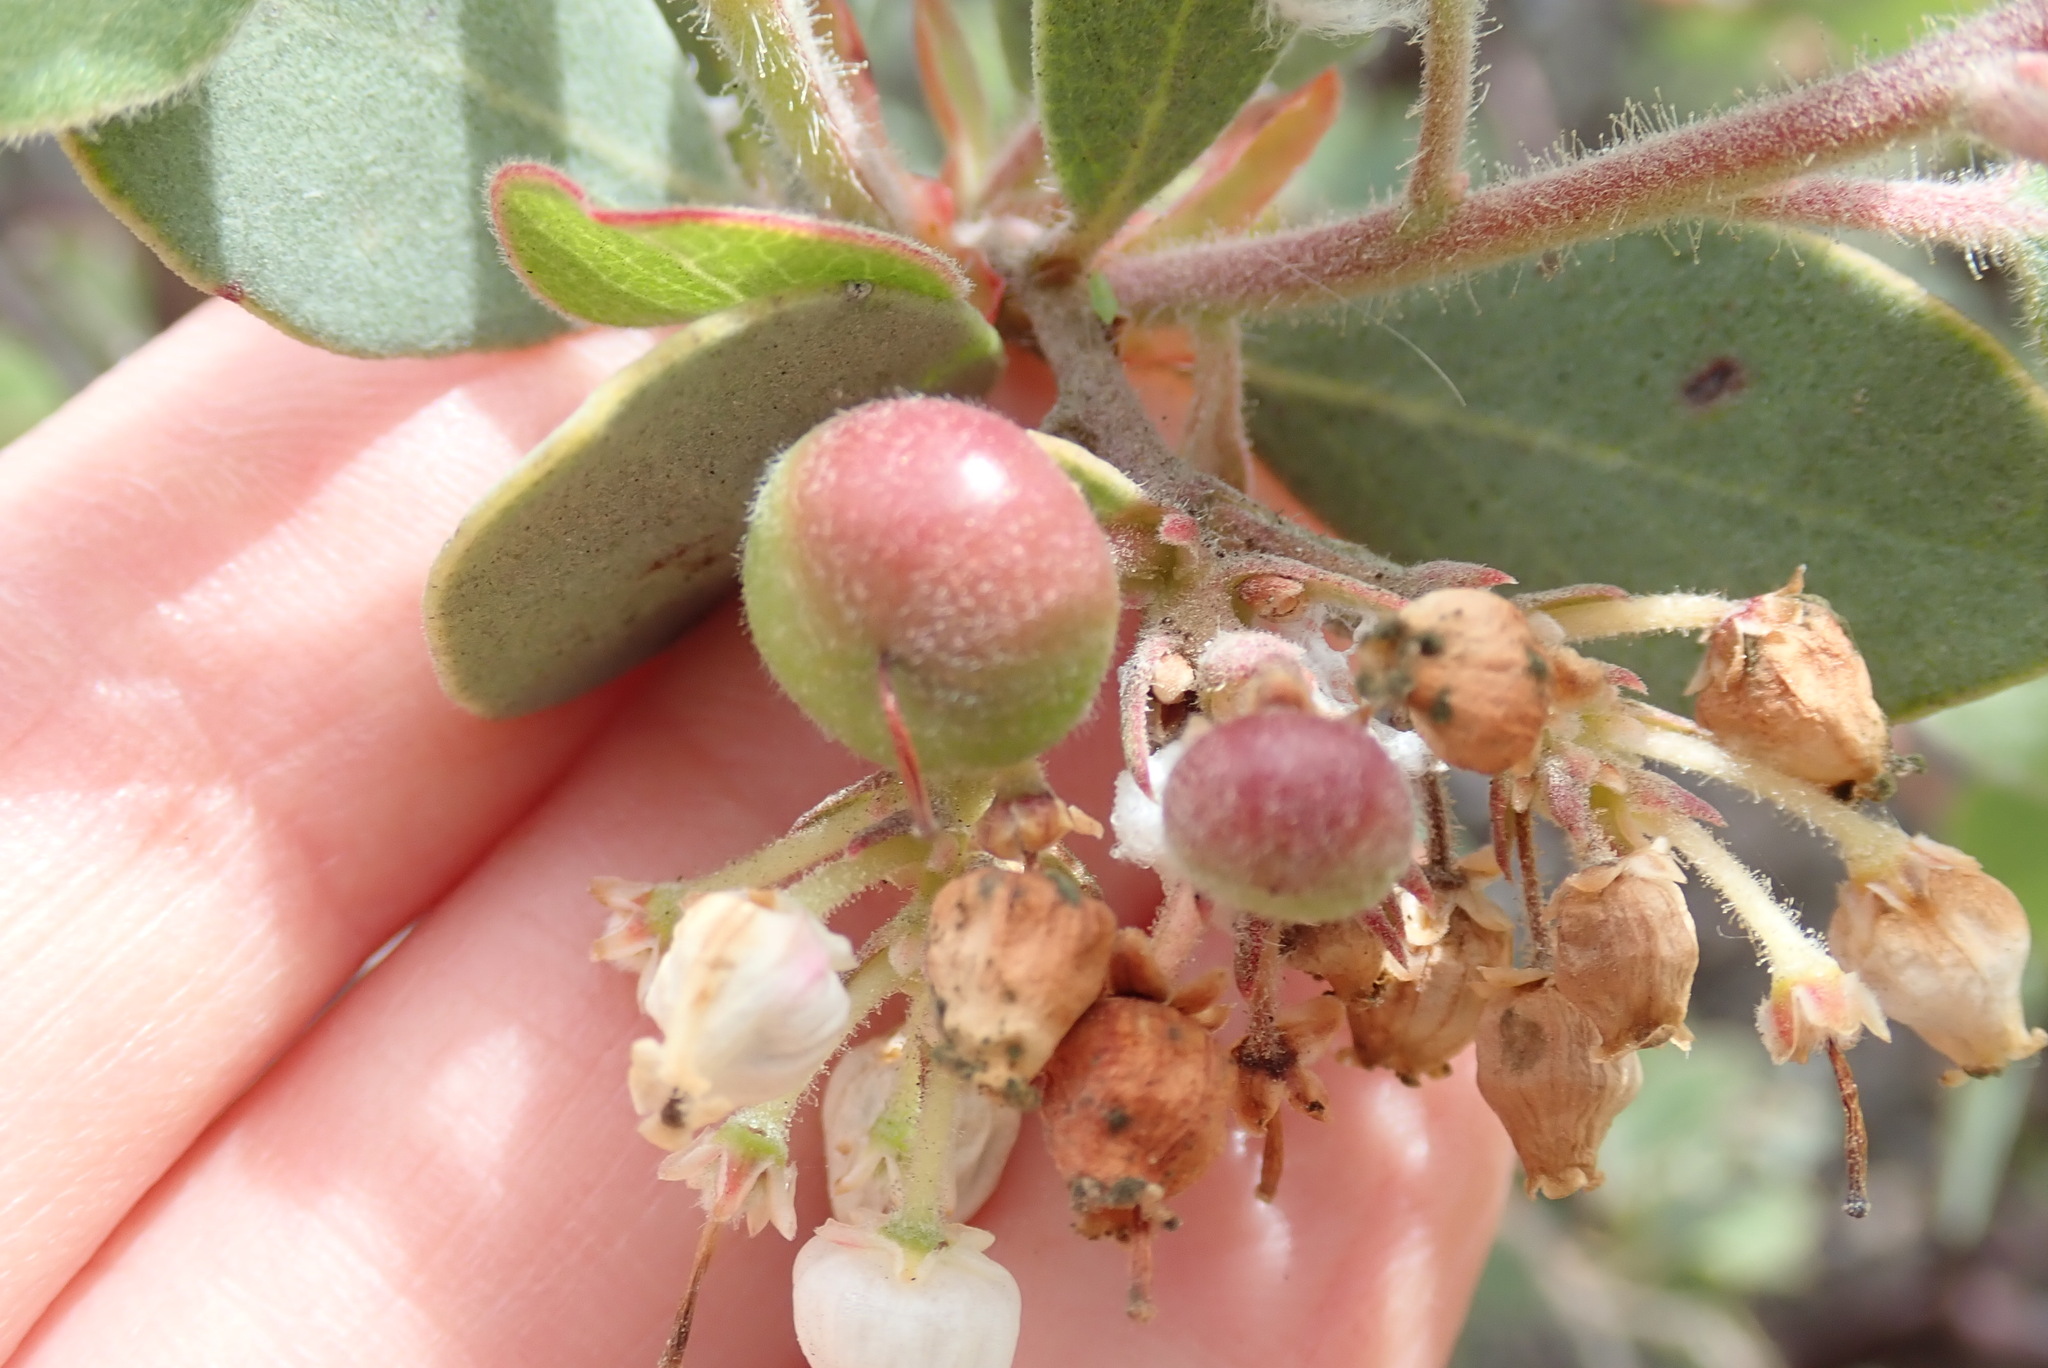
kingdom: Plantae
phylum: Tracheophyta
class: Magnoliopsida
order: Ericales
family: Ericaceae
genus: Arctostaphylos
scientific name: Arctostaphylos glandulosa
